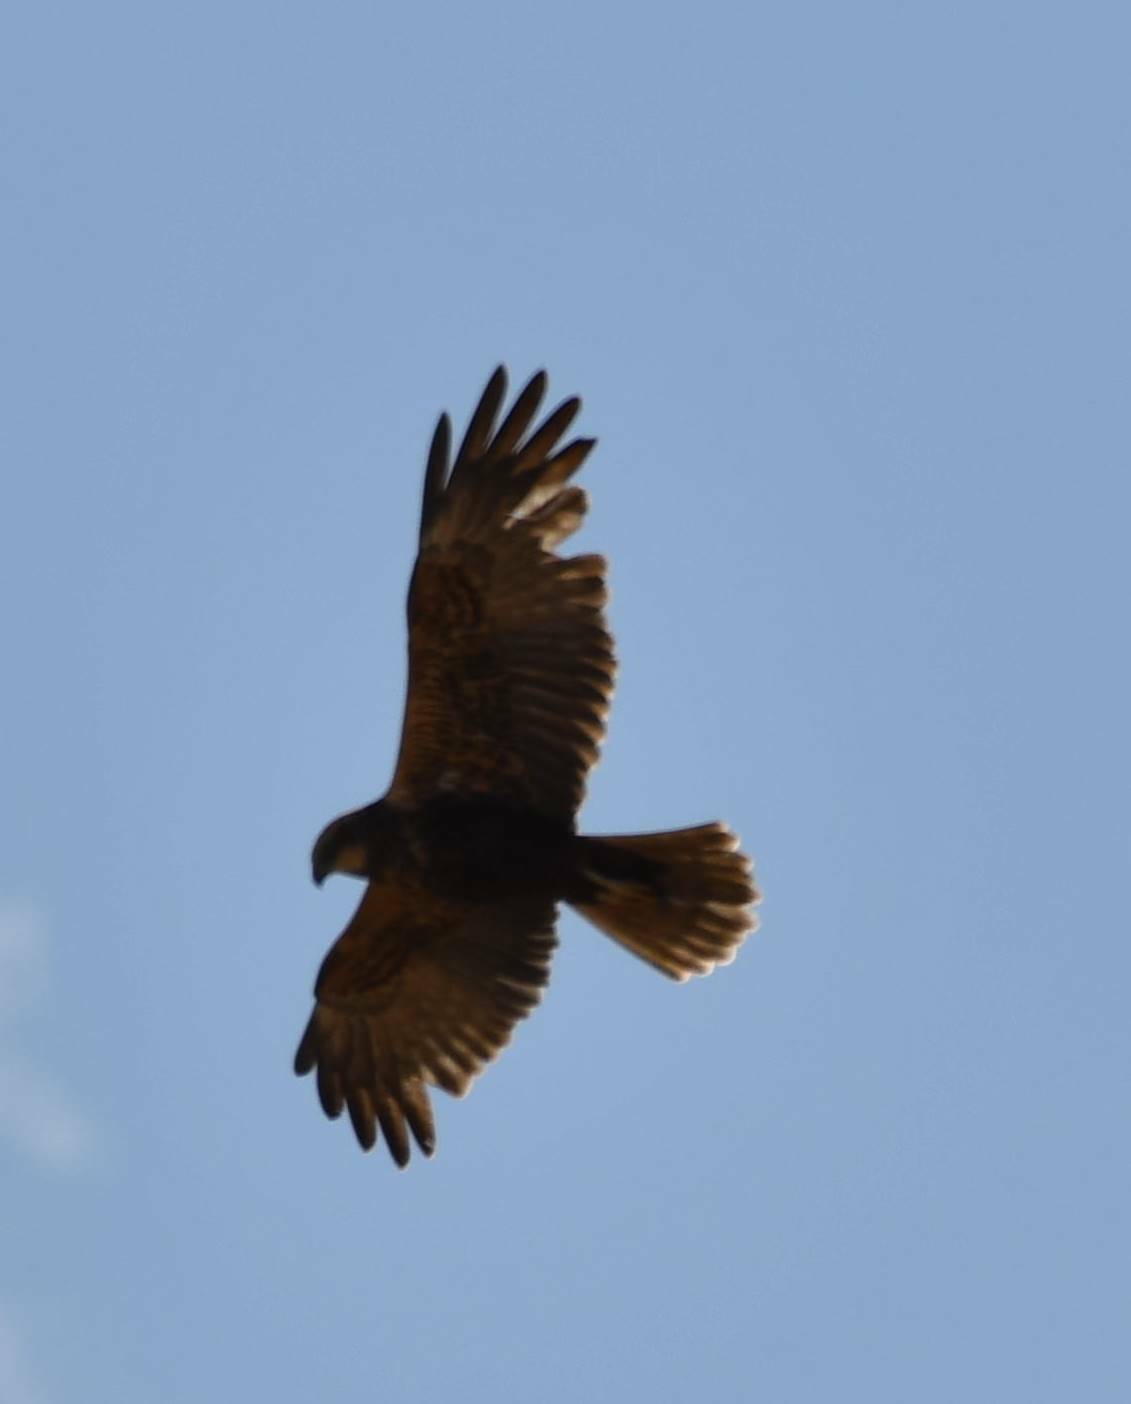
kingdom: Animalia
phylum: Chordata
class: Aves
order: Accipitriformes
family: Accipitridae
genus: Circus
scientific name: Circus aeruginosus
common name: Western marsh harrier
